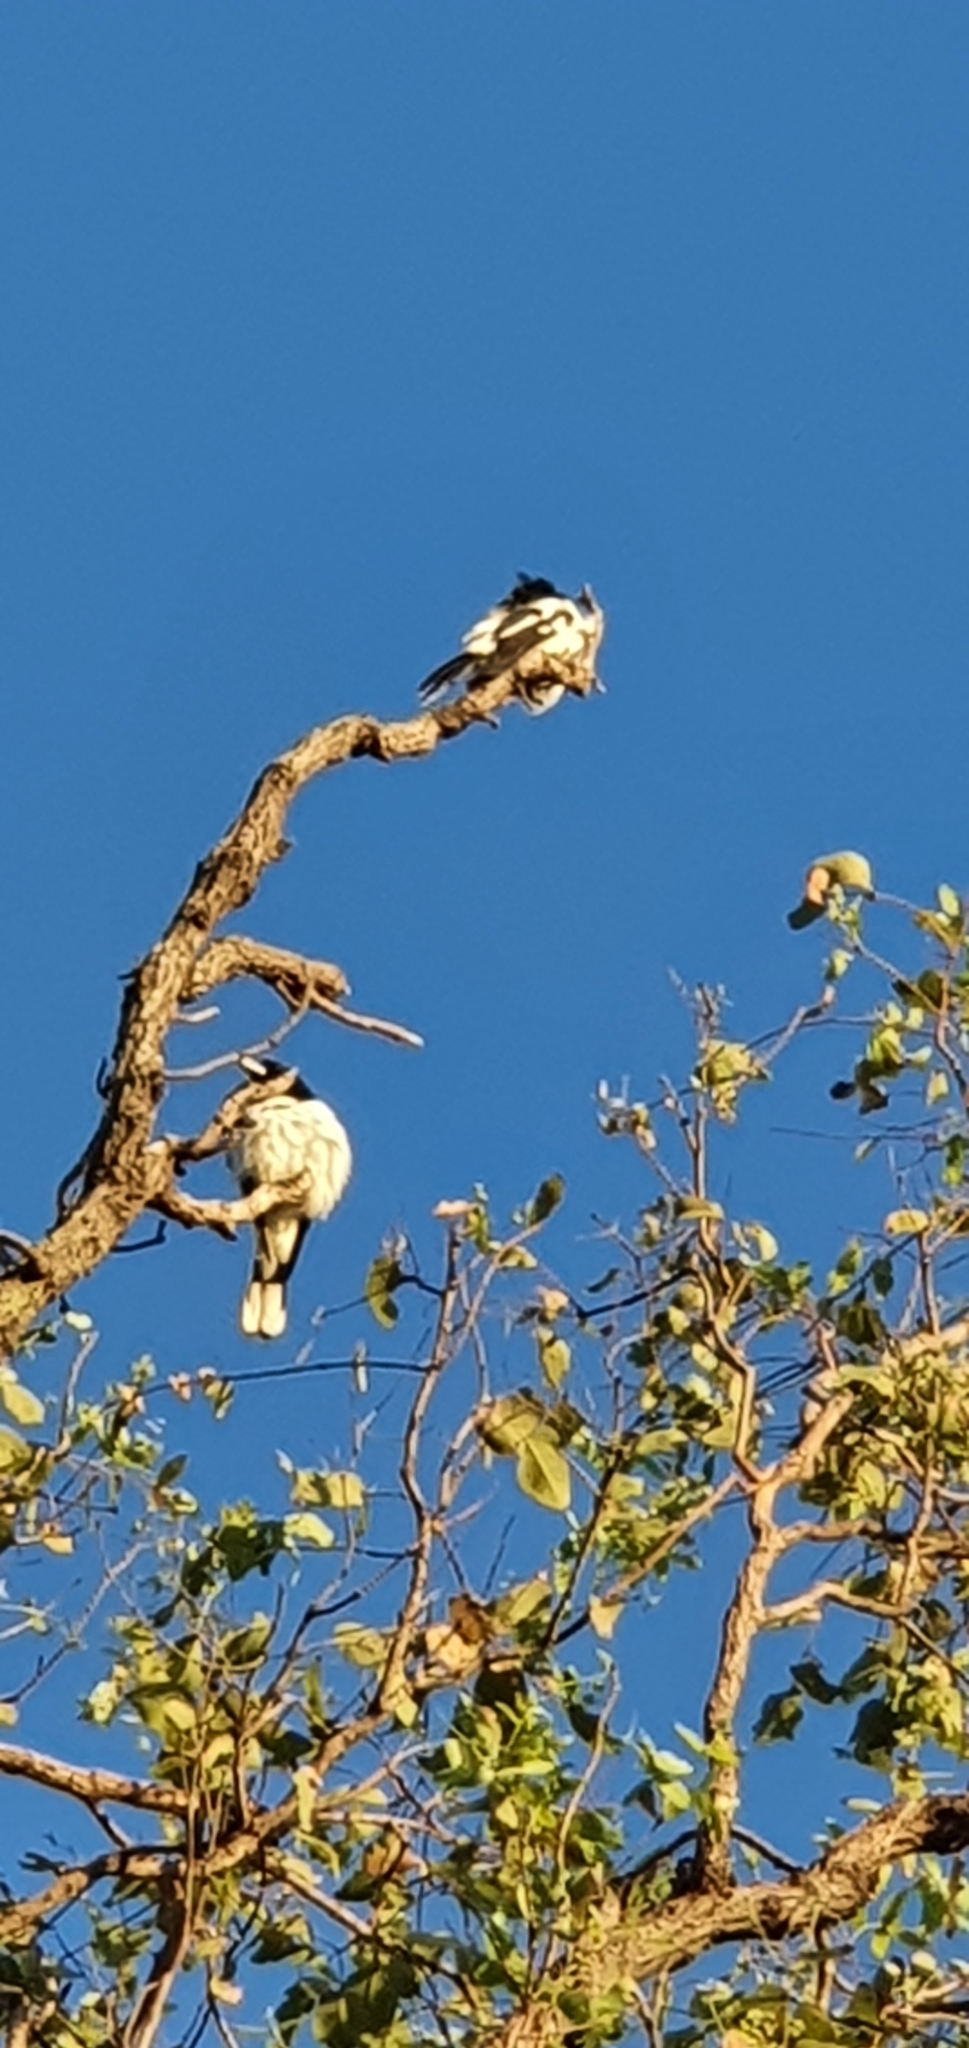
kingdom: Animalia
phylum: Chordata
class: Aves
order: Passeriformes
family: Cracticidae
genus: Cracticus
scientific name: Cracticus nigrogularis
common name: Pied butcherbird
